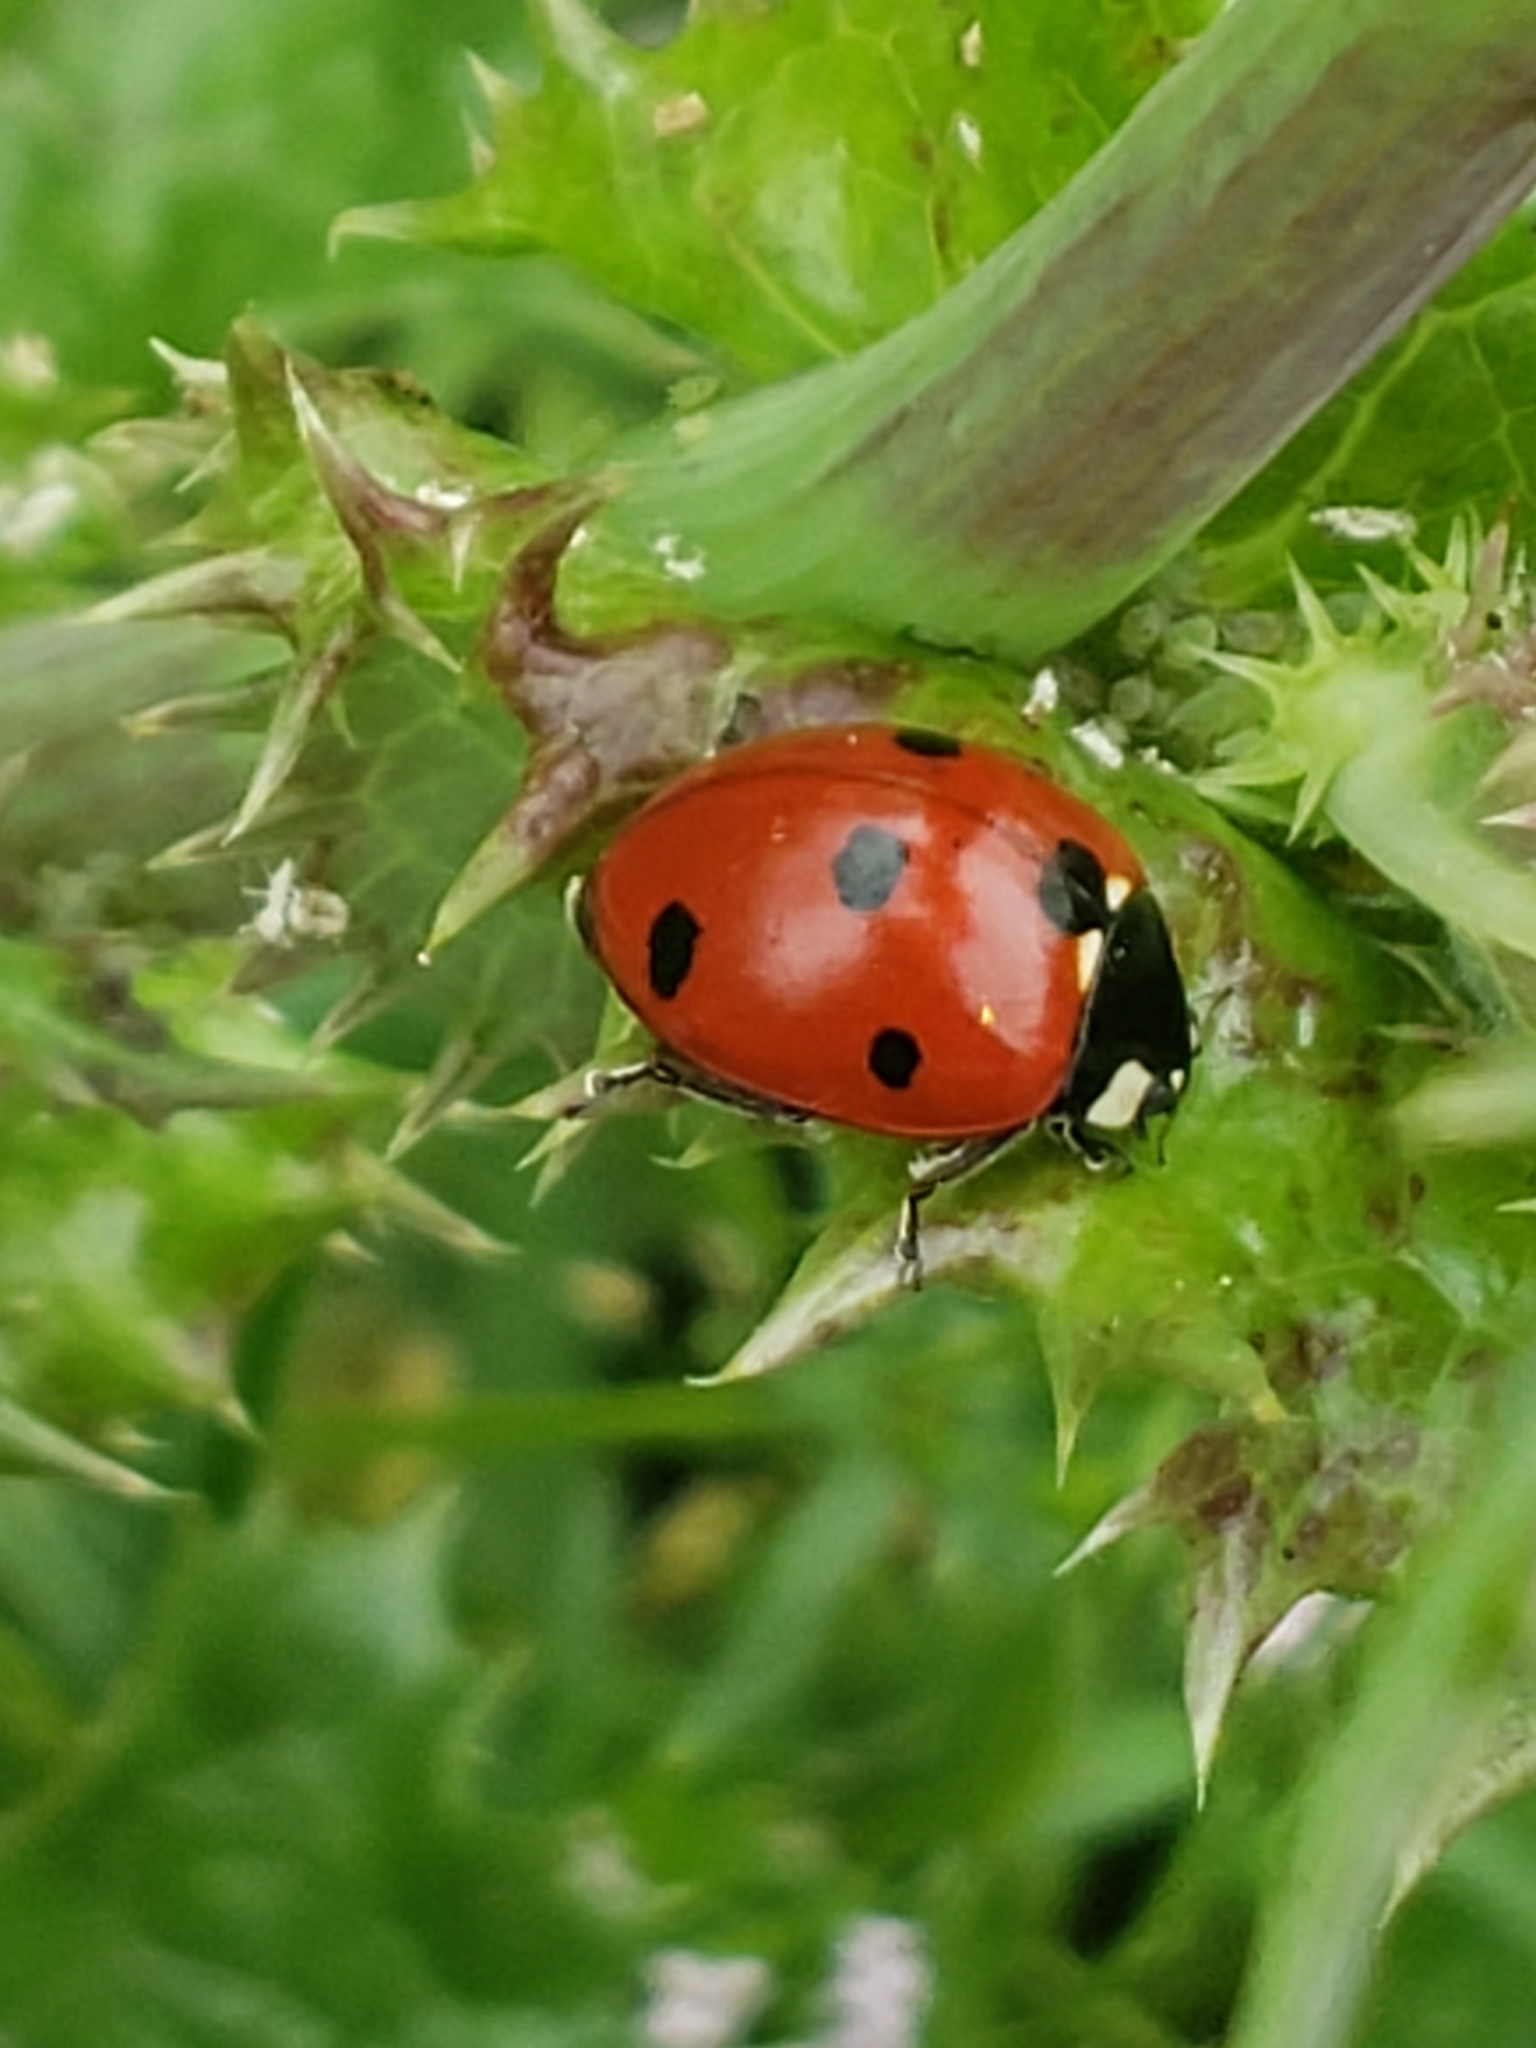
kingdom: Animalia
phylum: Arthropoda
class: Insecta
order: Coleoptera
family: Coccinellidae
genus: Coccinella
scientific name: Coccinella septempunctata
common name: Sevenspotted lady beetle
